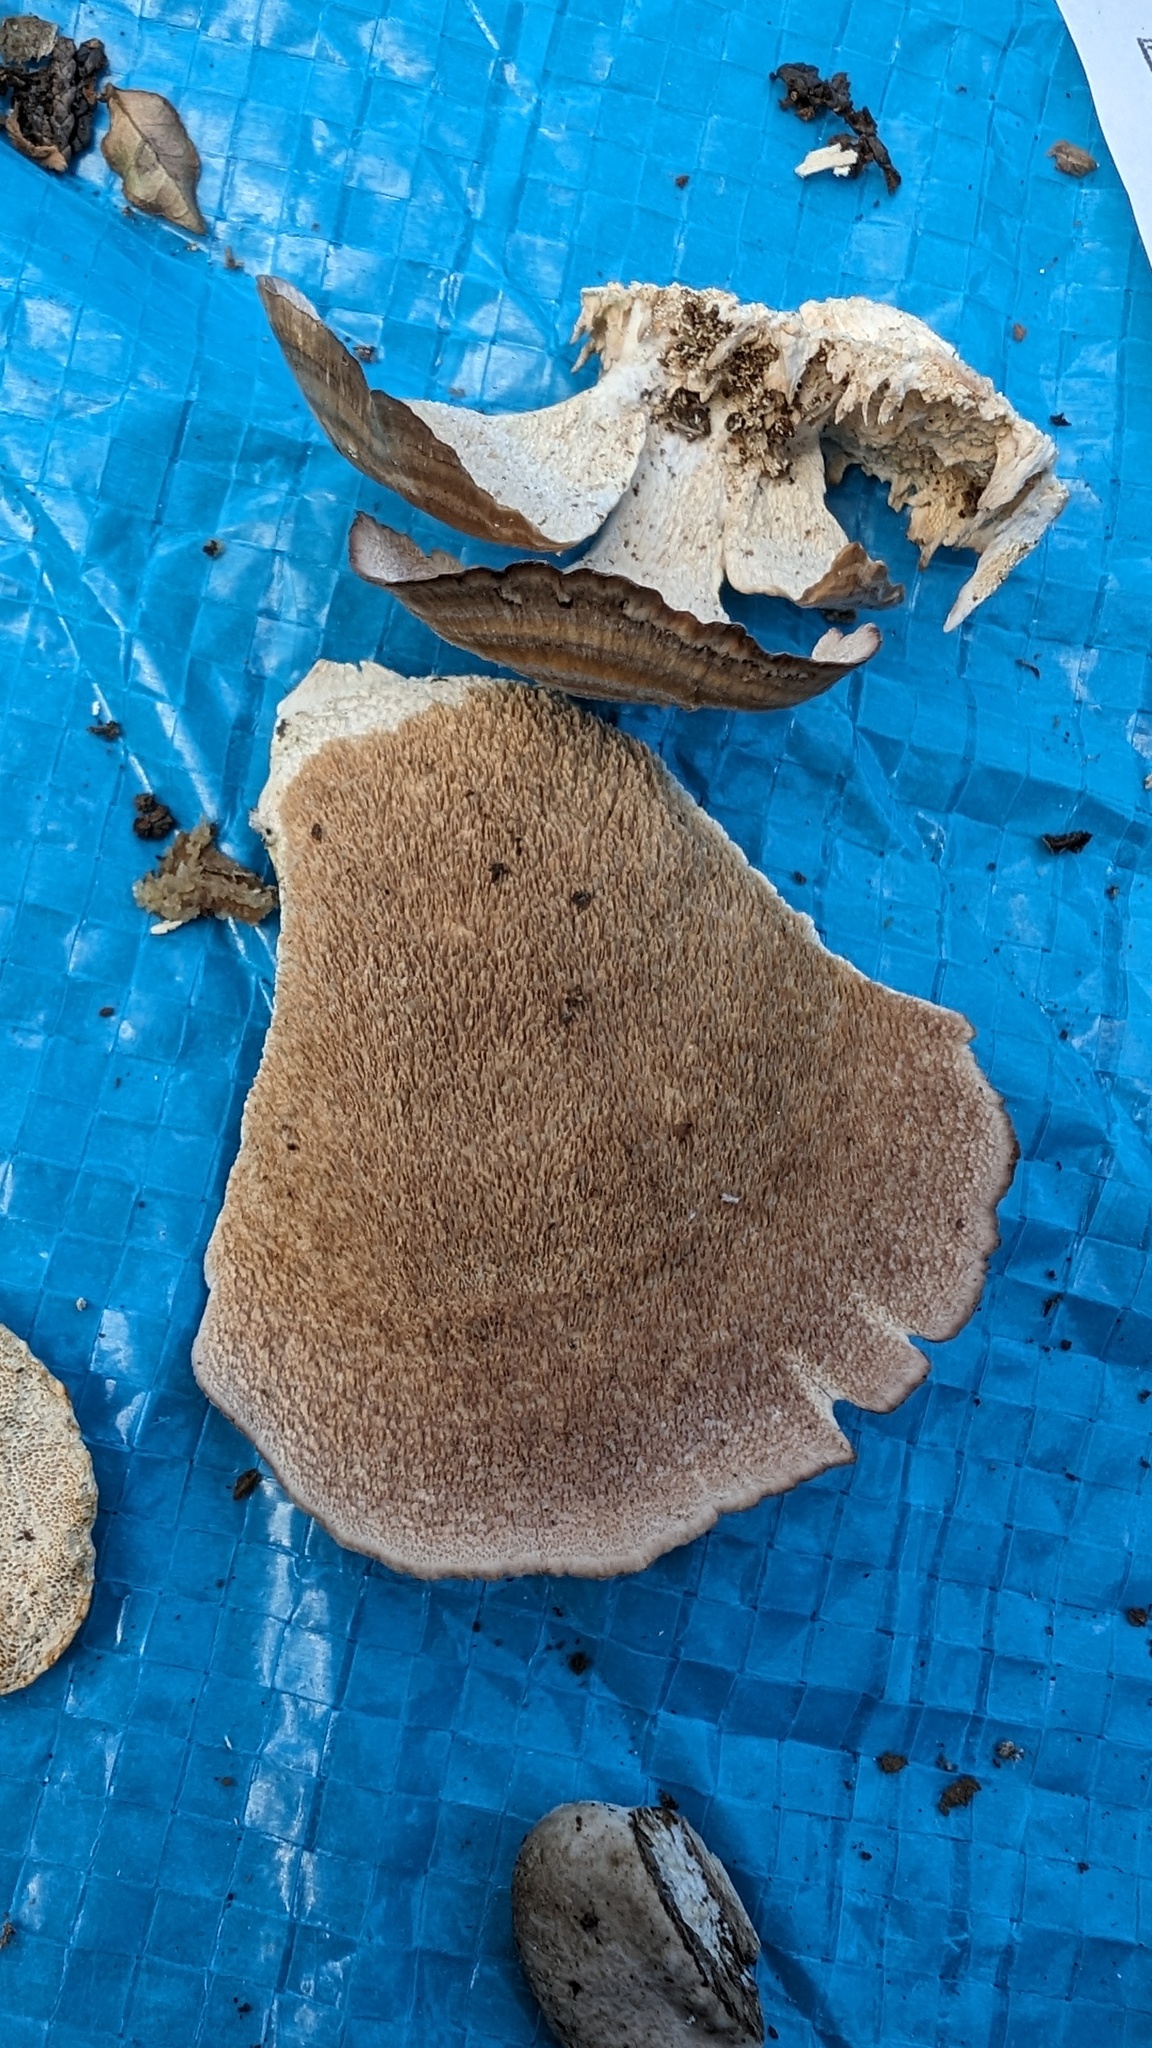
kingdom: Fungi
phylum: Basidiomycota
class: Agaricomycetes
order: Hymenochaetales
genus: Trichaptum
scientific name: Trichaptum biforme
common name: Violet-toothed polypore
